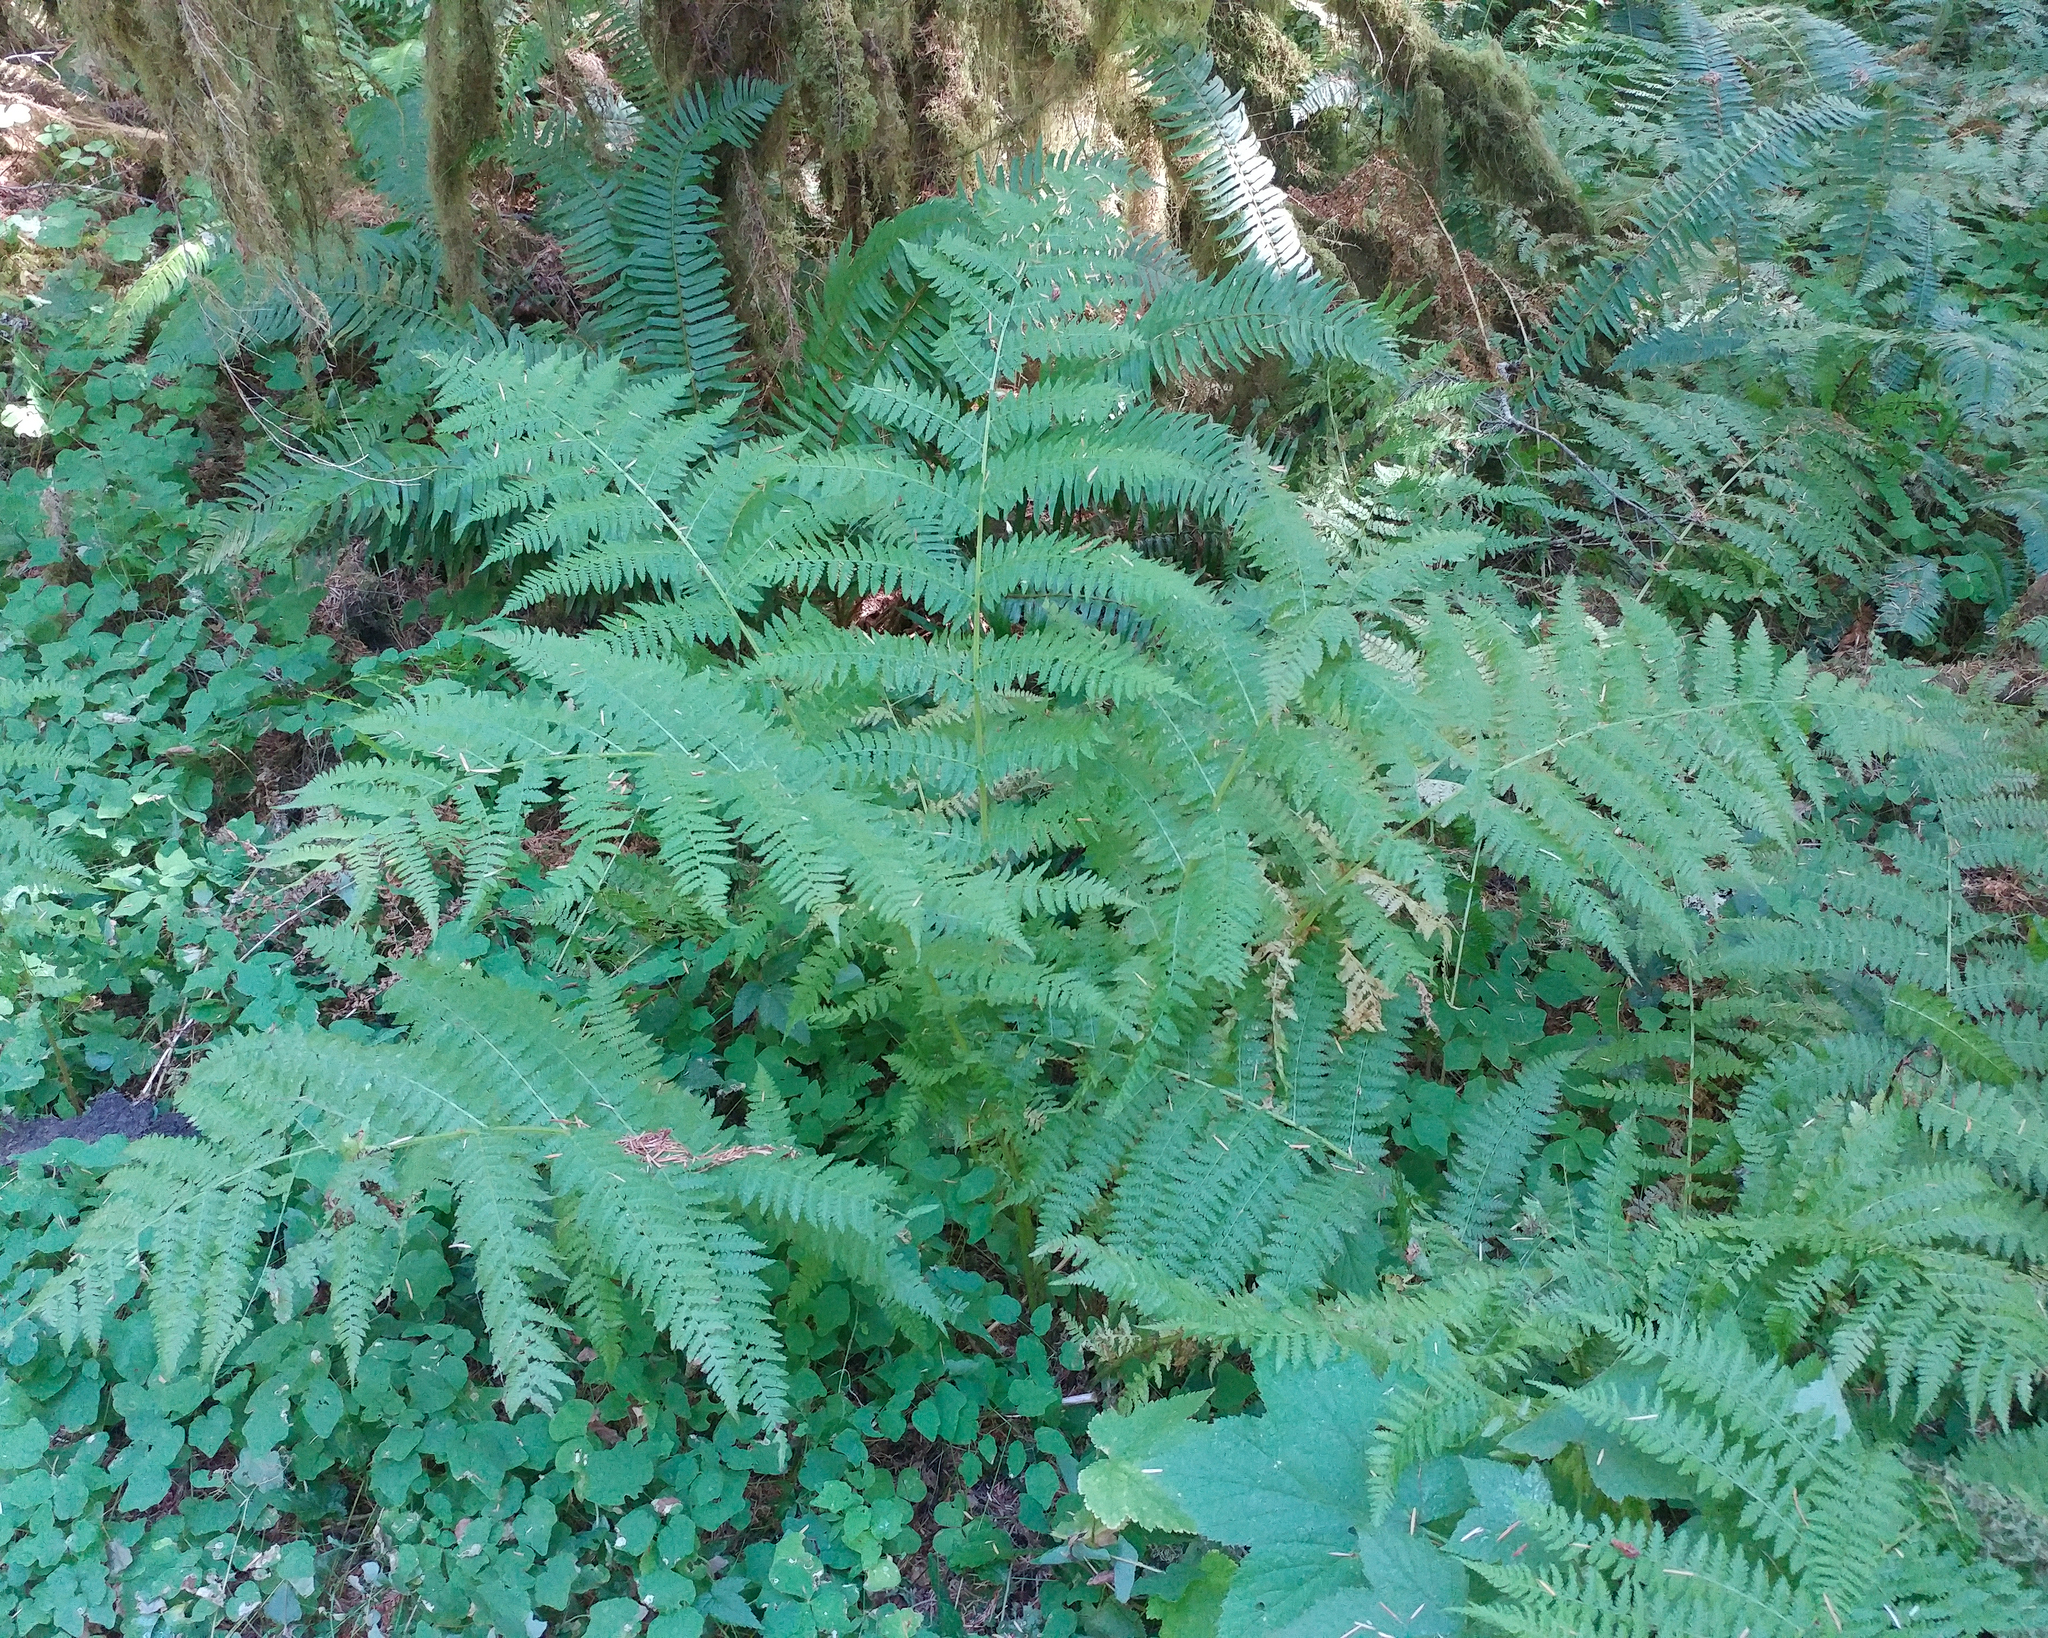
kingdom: Plantae
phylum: Tracheophyta
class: Polypodiopsida
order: Polypodiales
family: Athyriaceae
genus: Athyrium
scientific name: Athyrium filix-femina
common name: Lady fern
